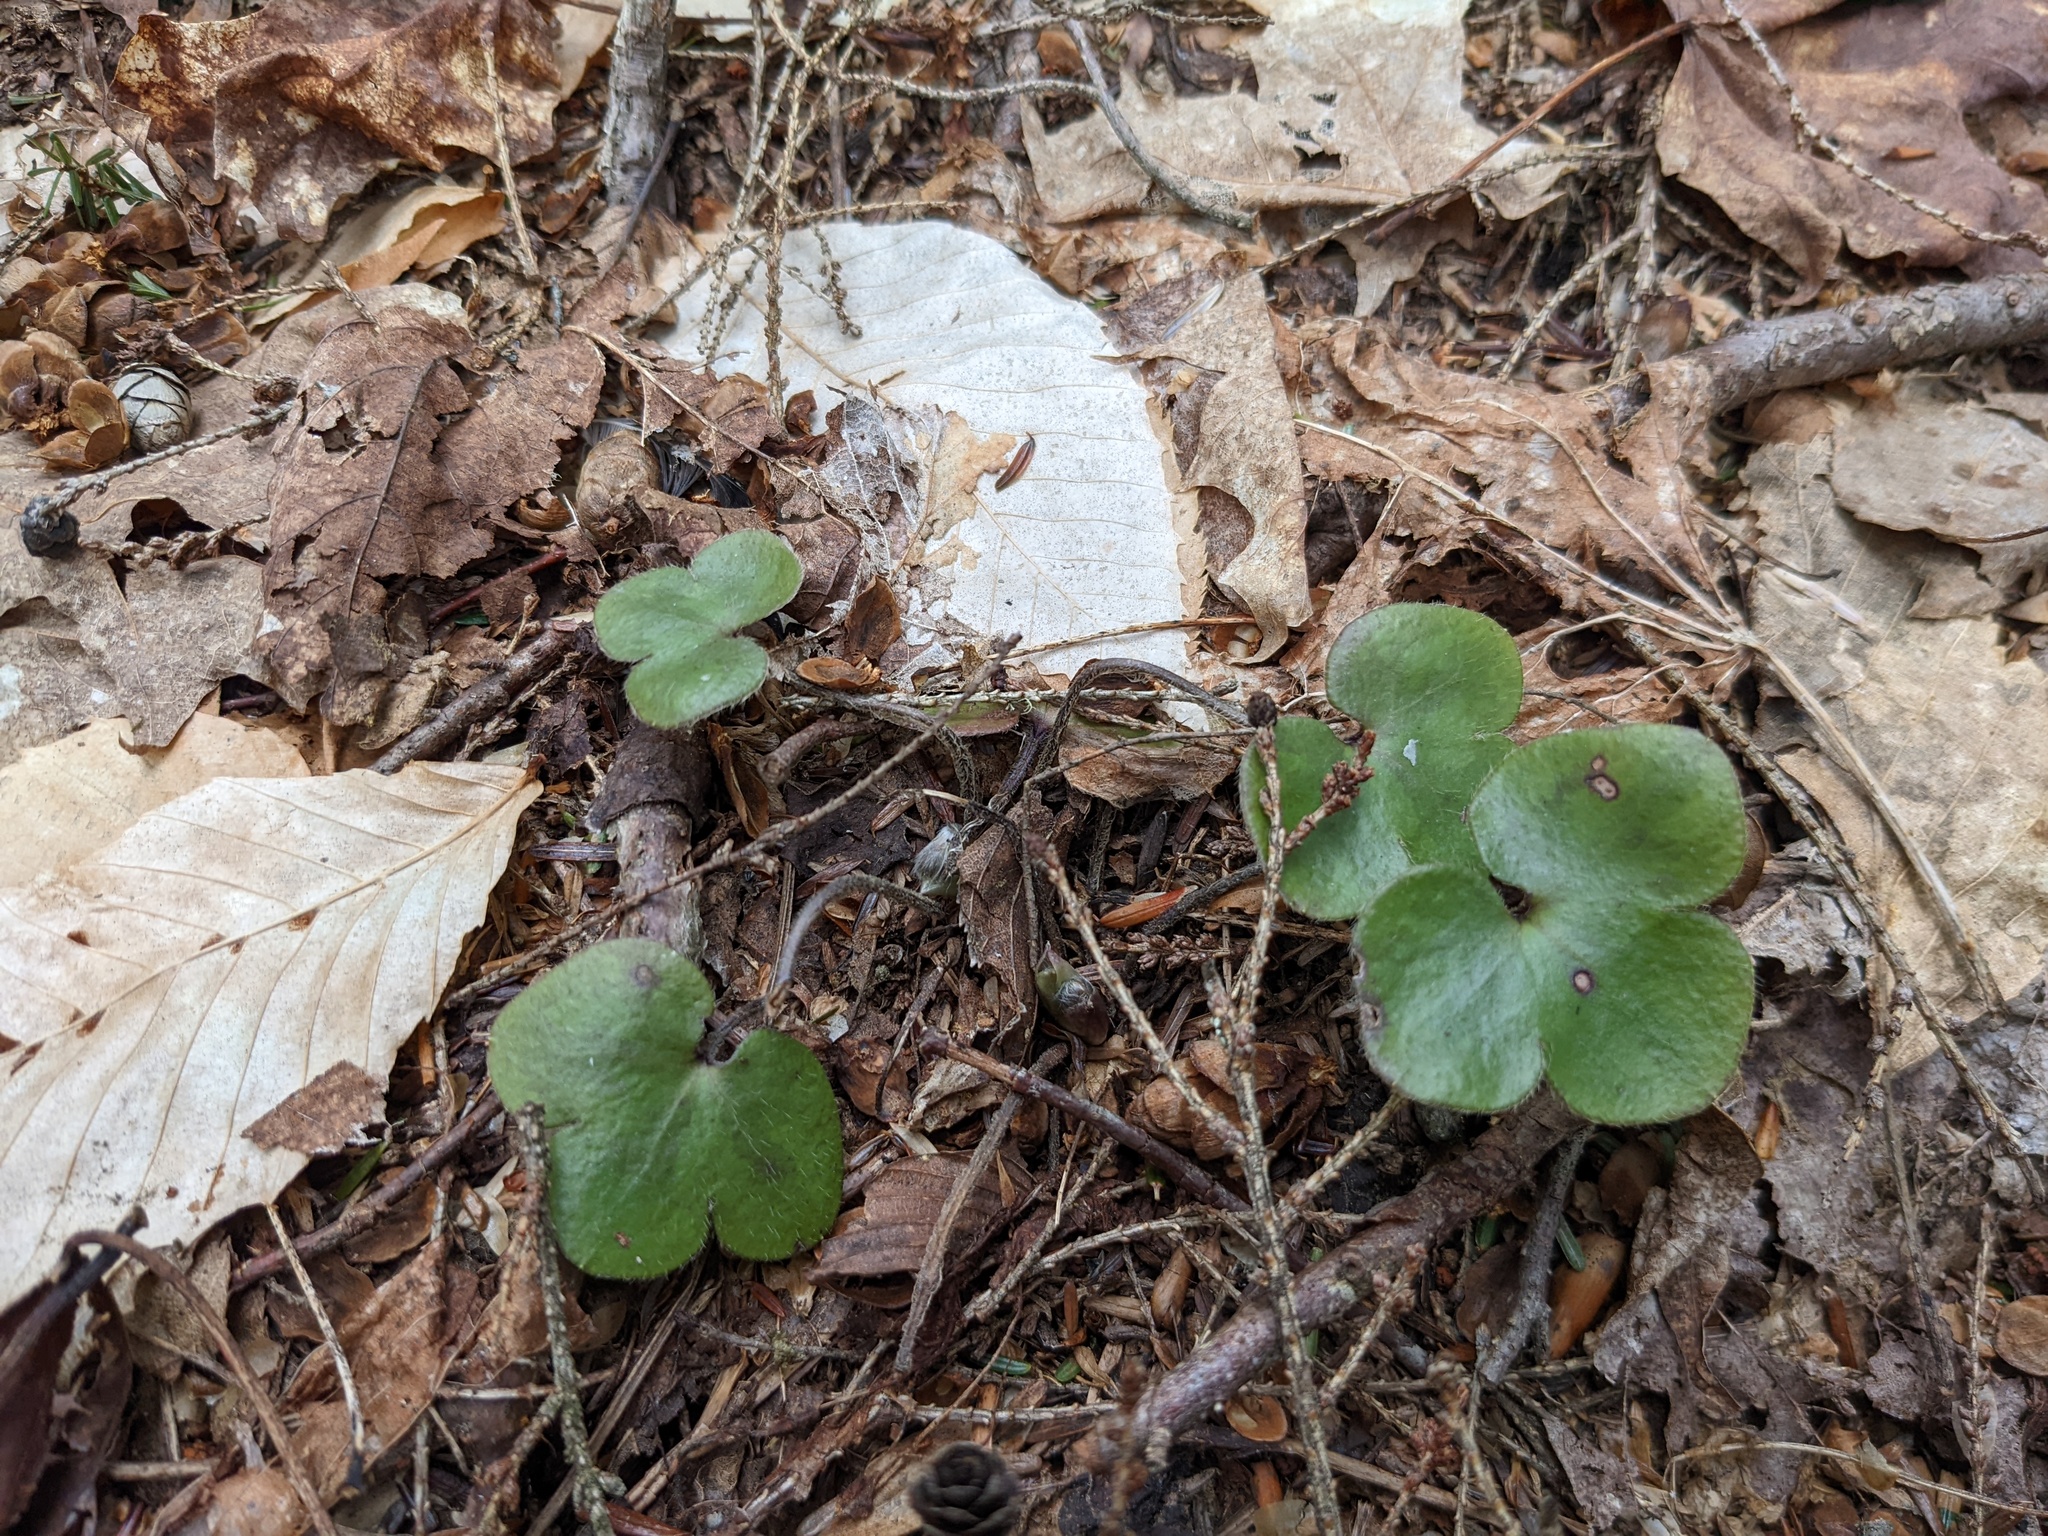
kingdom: Plantae
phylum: Tracheophyta
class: Magnoliopsida
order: Ranunculales
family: Ranunculaceae
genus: Hepatica
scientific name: Hepatica americana
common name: American hepatica
